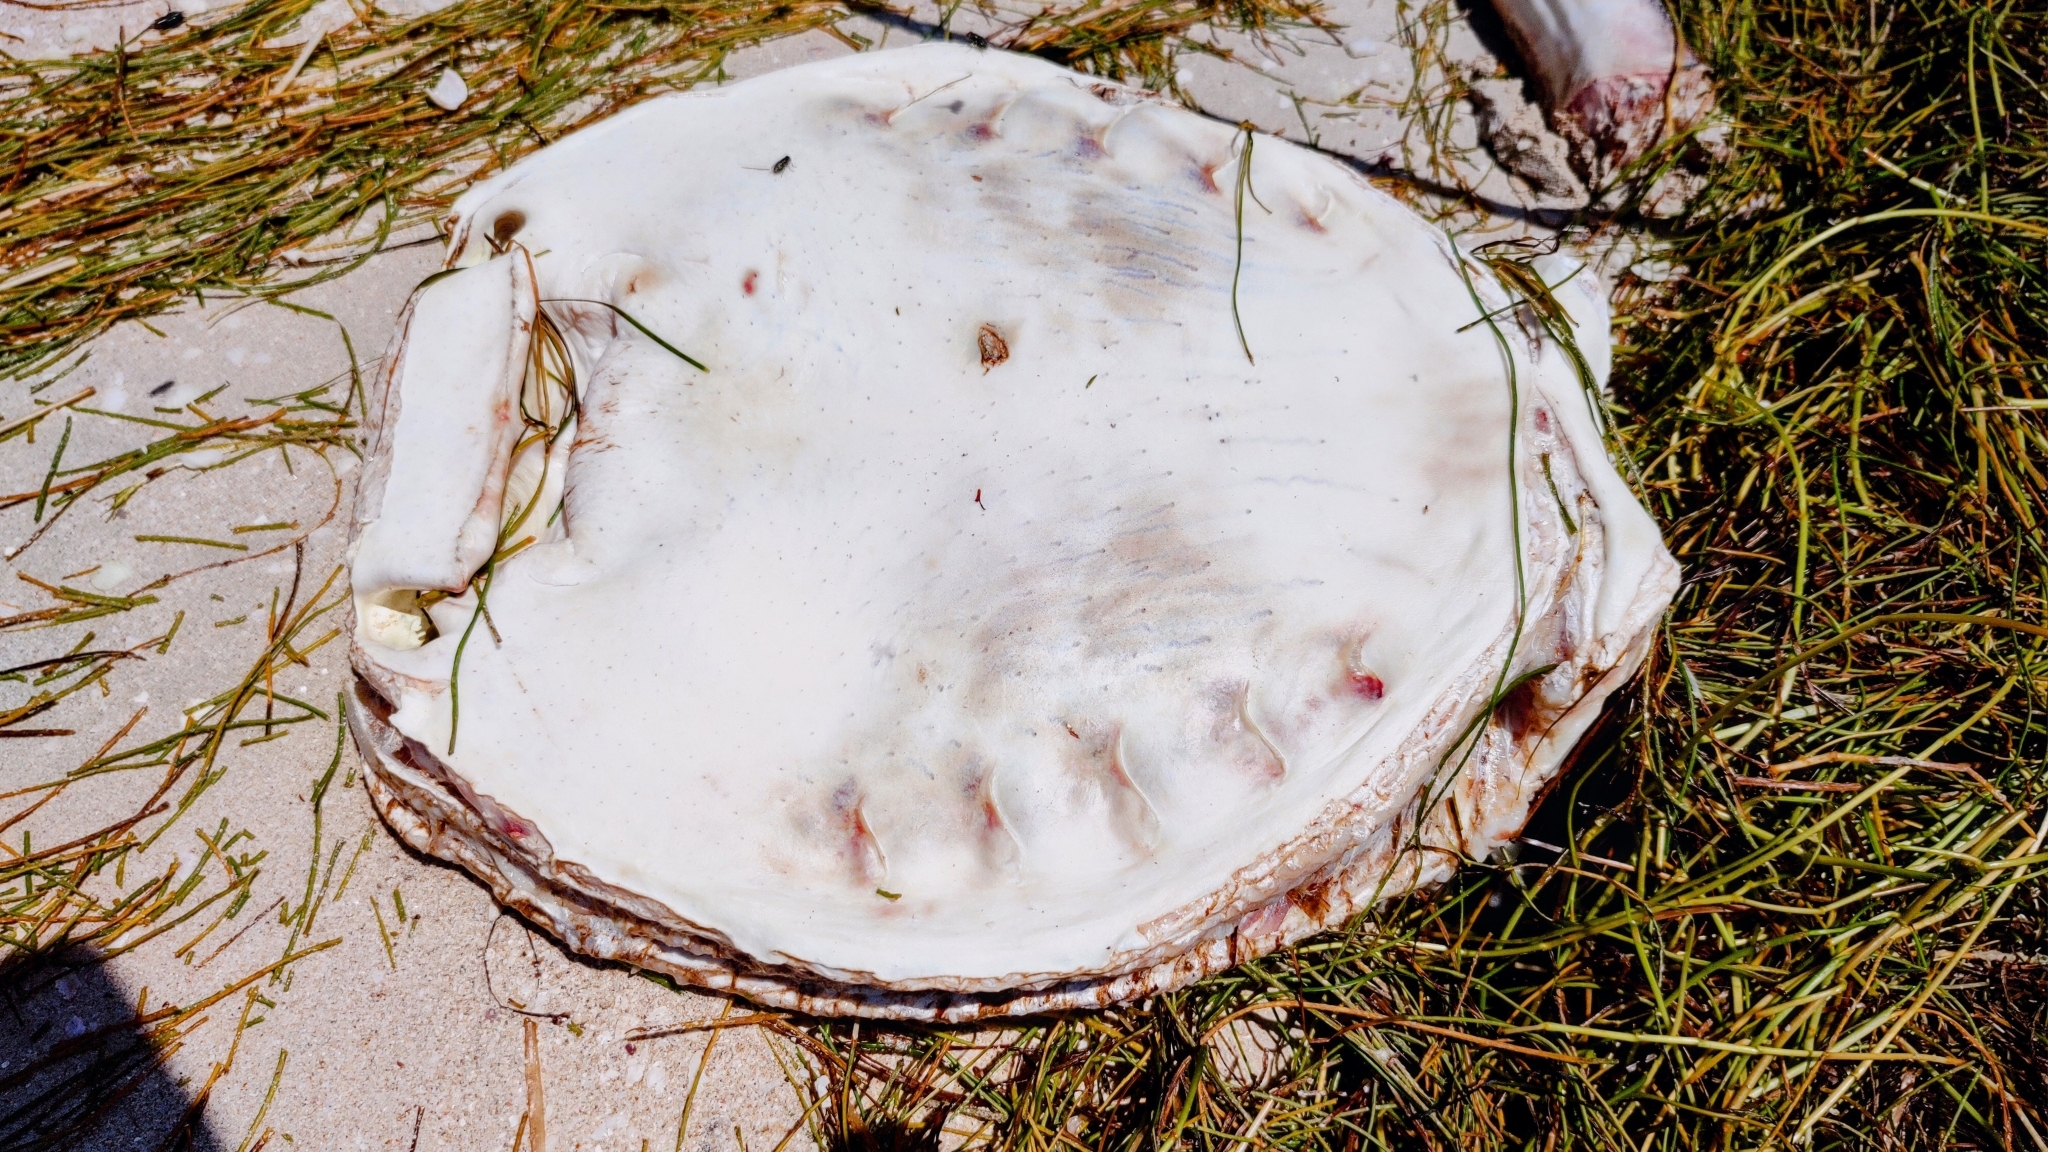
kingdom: Animalia
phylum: Chordata
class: Elasmobranchii
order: Myliobatiformes
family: Dasyatidae
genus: Hypanus
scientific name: Hypanus americanus
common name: Southern stingray
